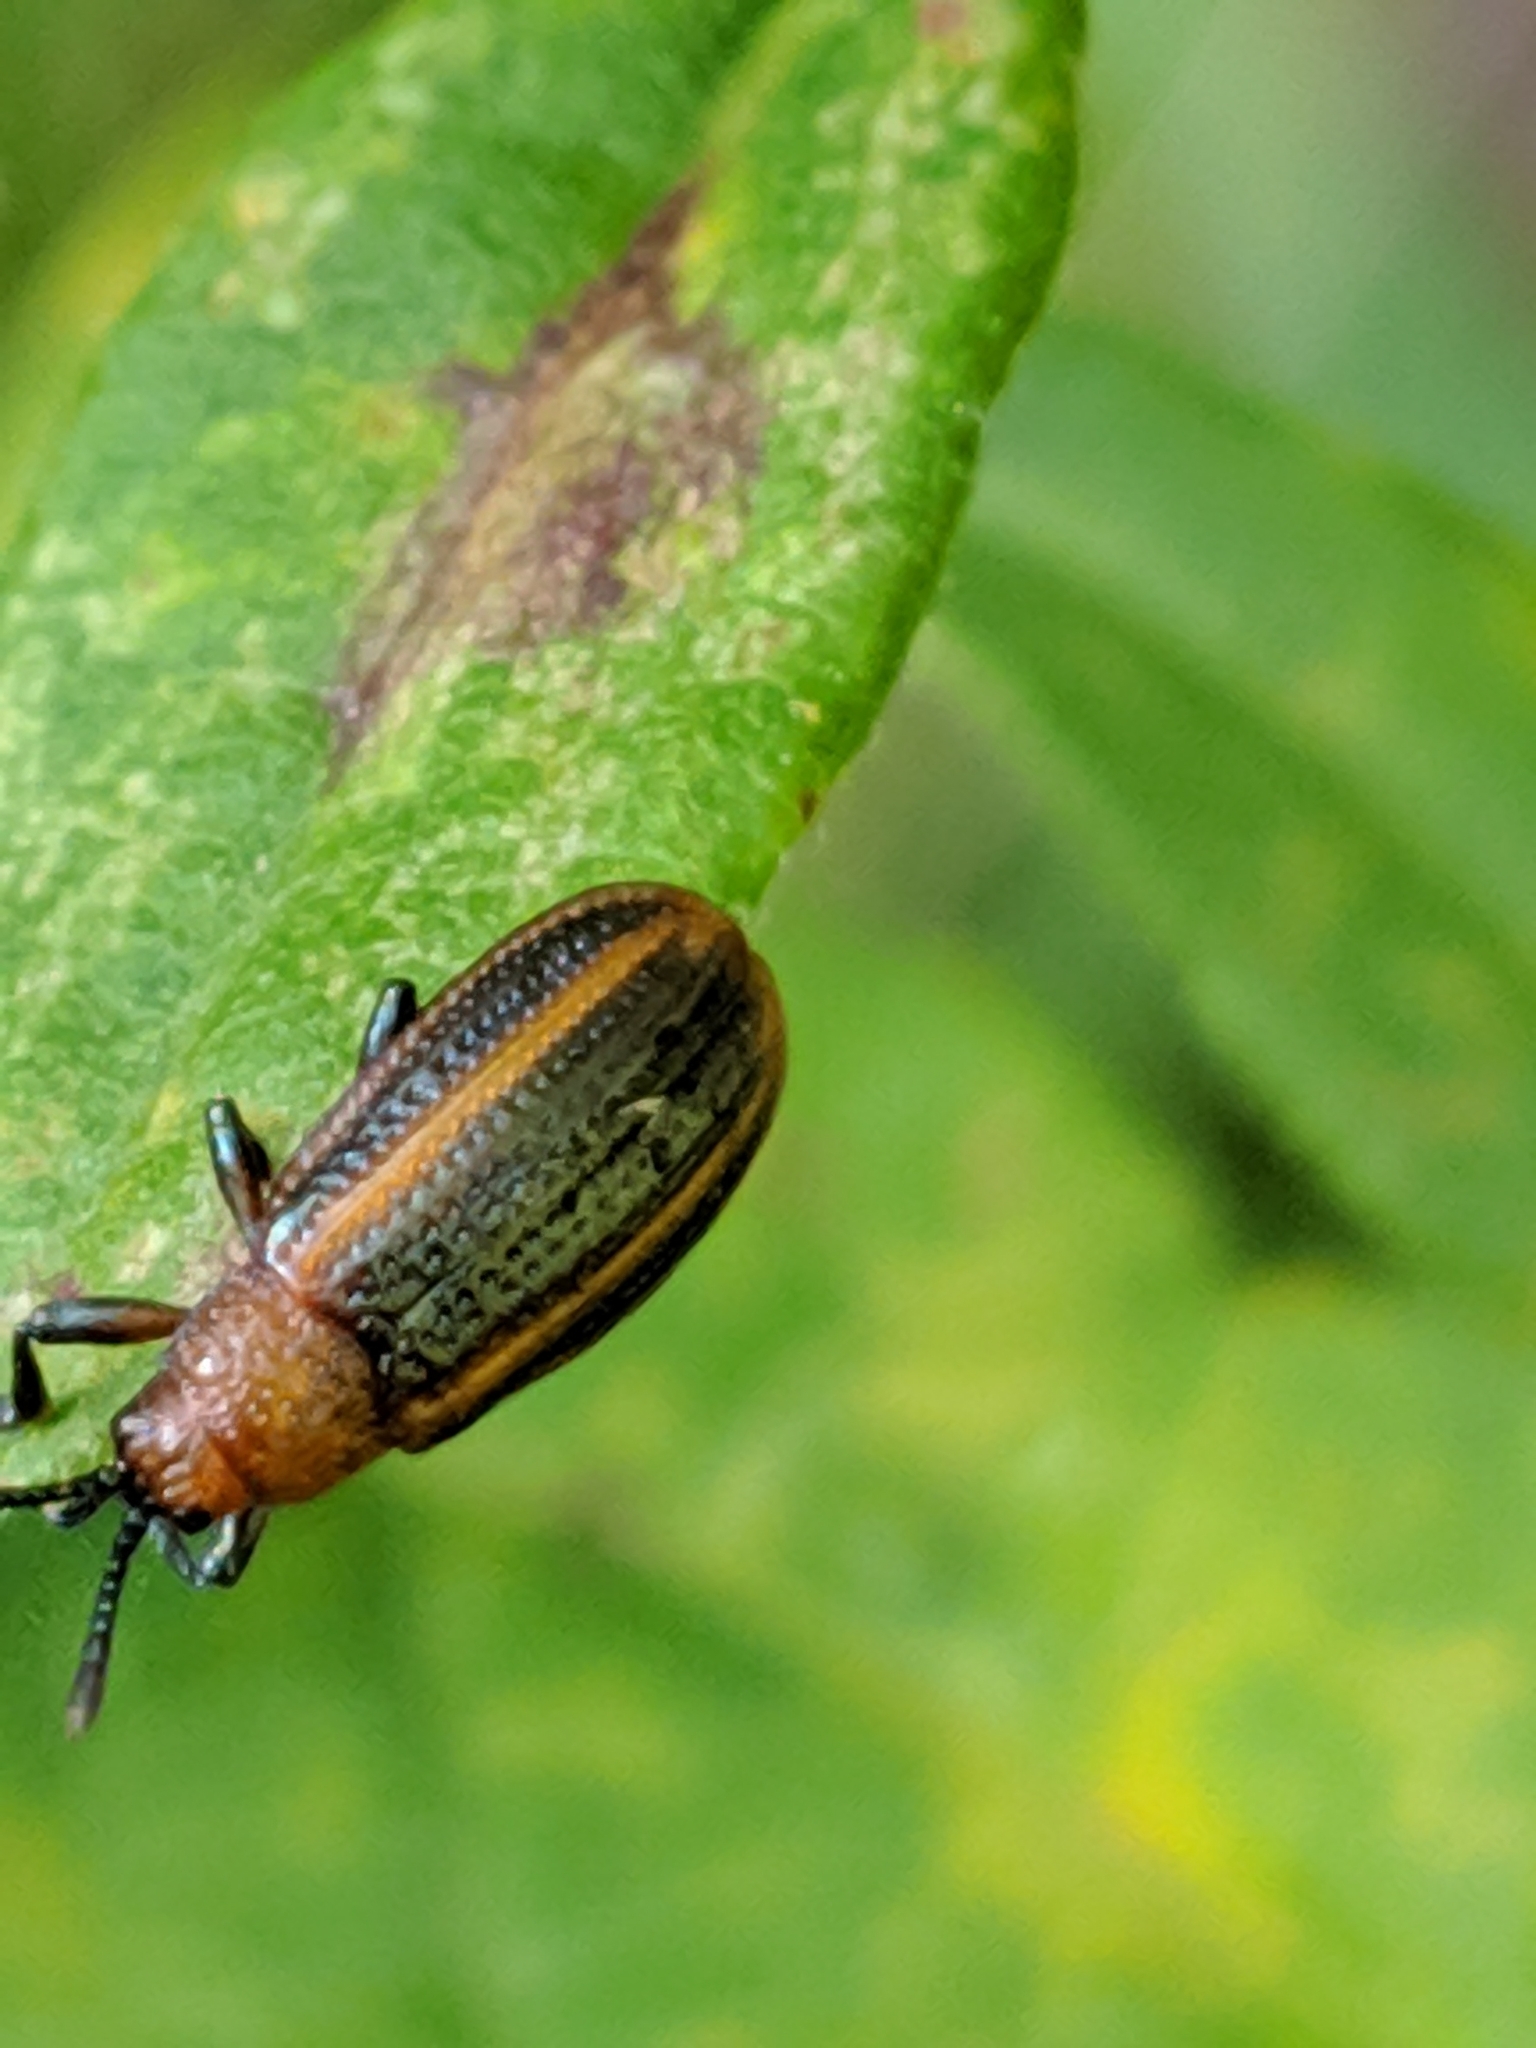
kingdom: Animalia
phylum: Arthropoda
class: Insecta
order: Coleoptera
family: Chrysomelidae
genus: Microrhopala
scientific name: Microrhopala vittata
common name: Goldenrod leaf miner beetle
